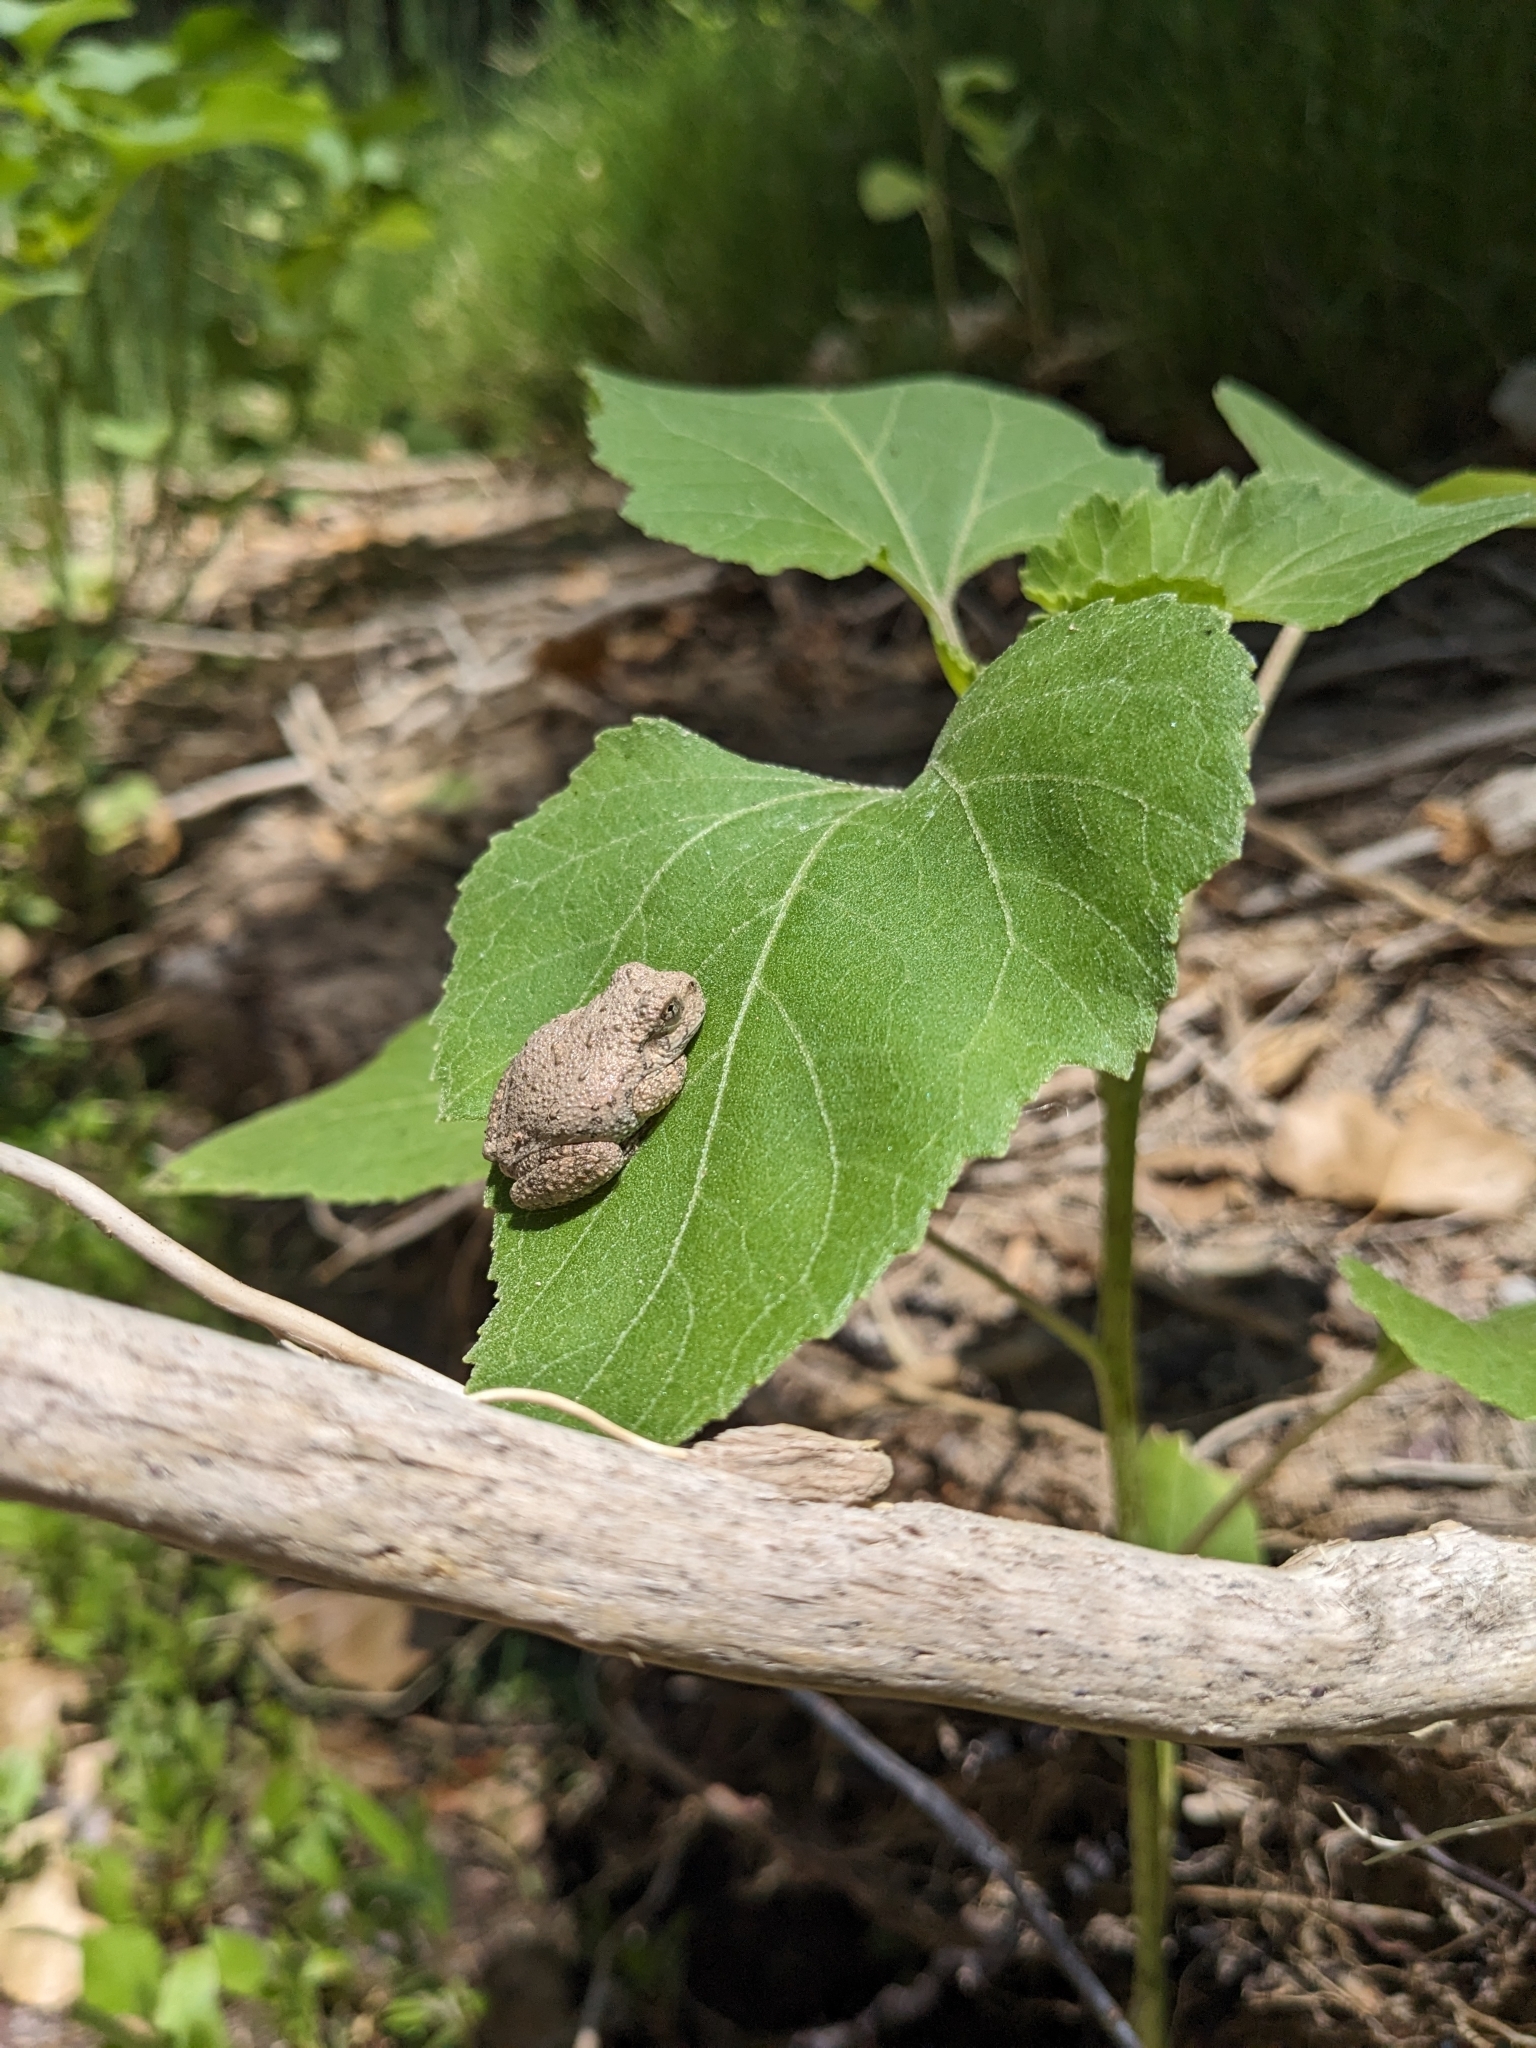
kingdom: Animalia
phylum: Chordata
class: Amphibia
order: Anura
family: Hylidae
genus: Dryophytes
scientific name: Dryophytes arenicolor
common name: Canyon treefrog
